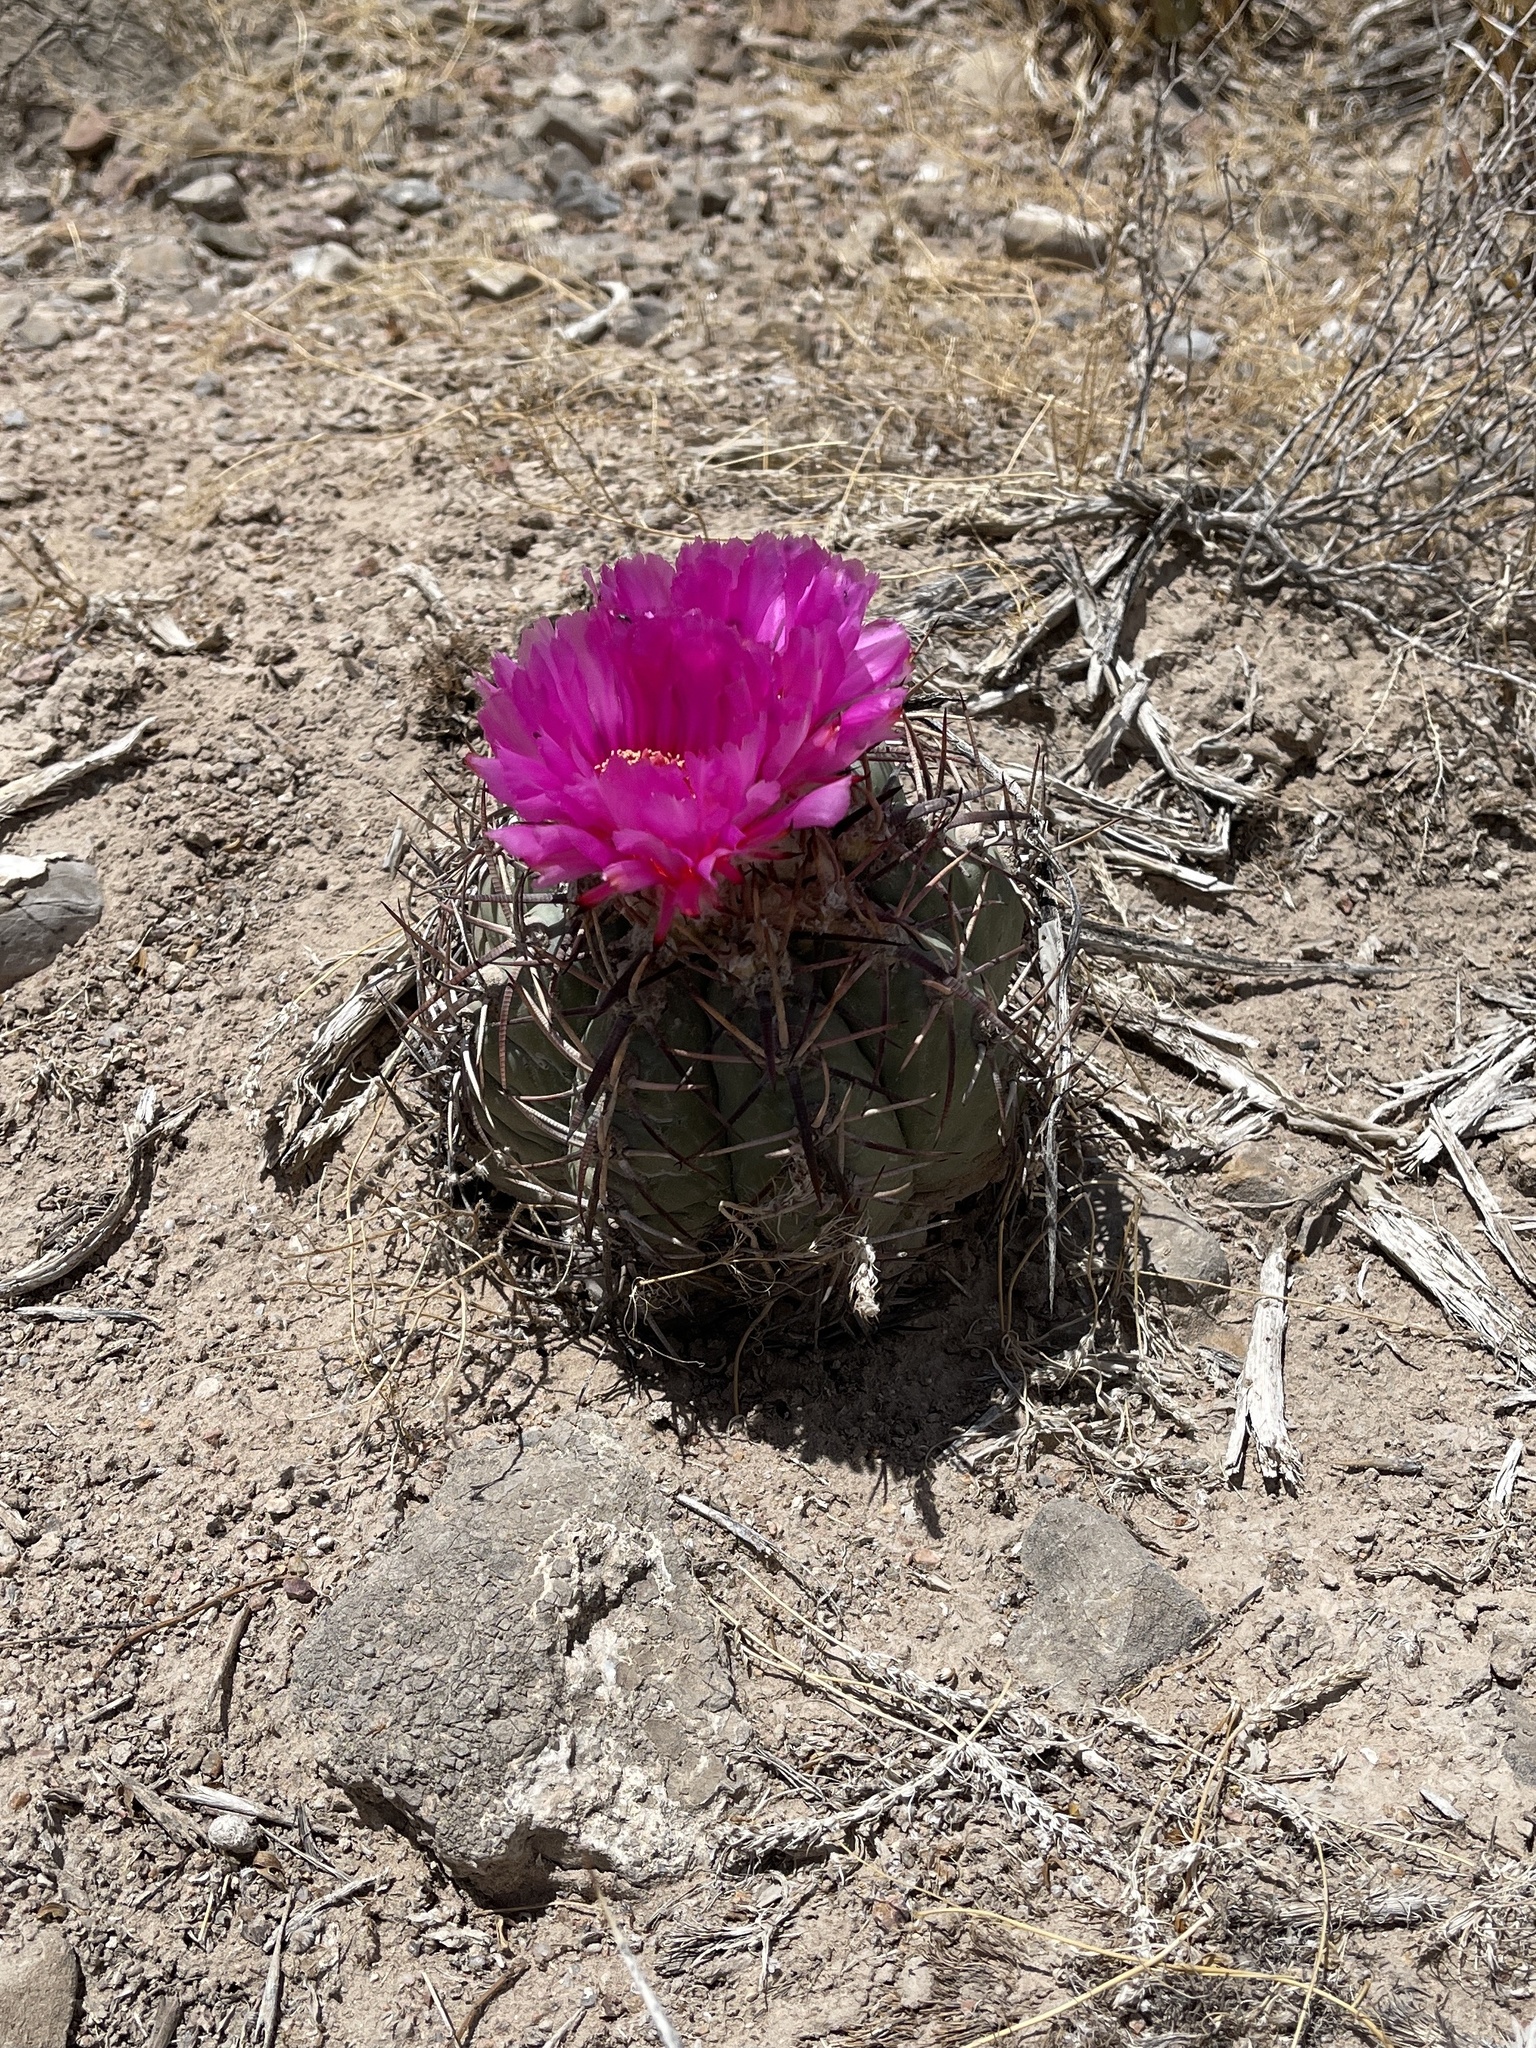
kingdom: Plantae
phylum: Tracheophyta
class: Magnoliopsida
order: Caryophyllales
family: Cactaceae
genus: Echinocactus
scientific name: Echinocactus horizonthalonius
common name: Devilshead
